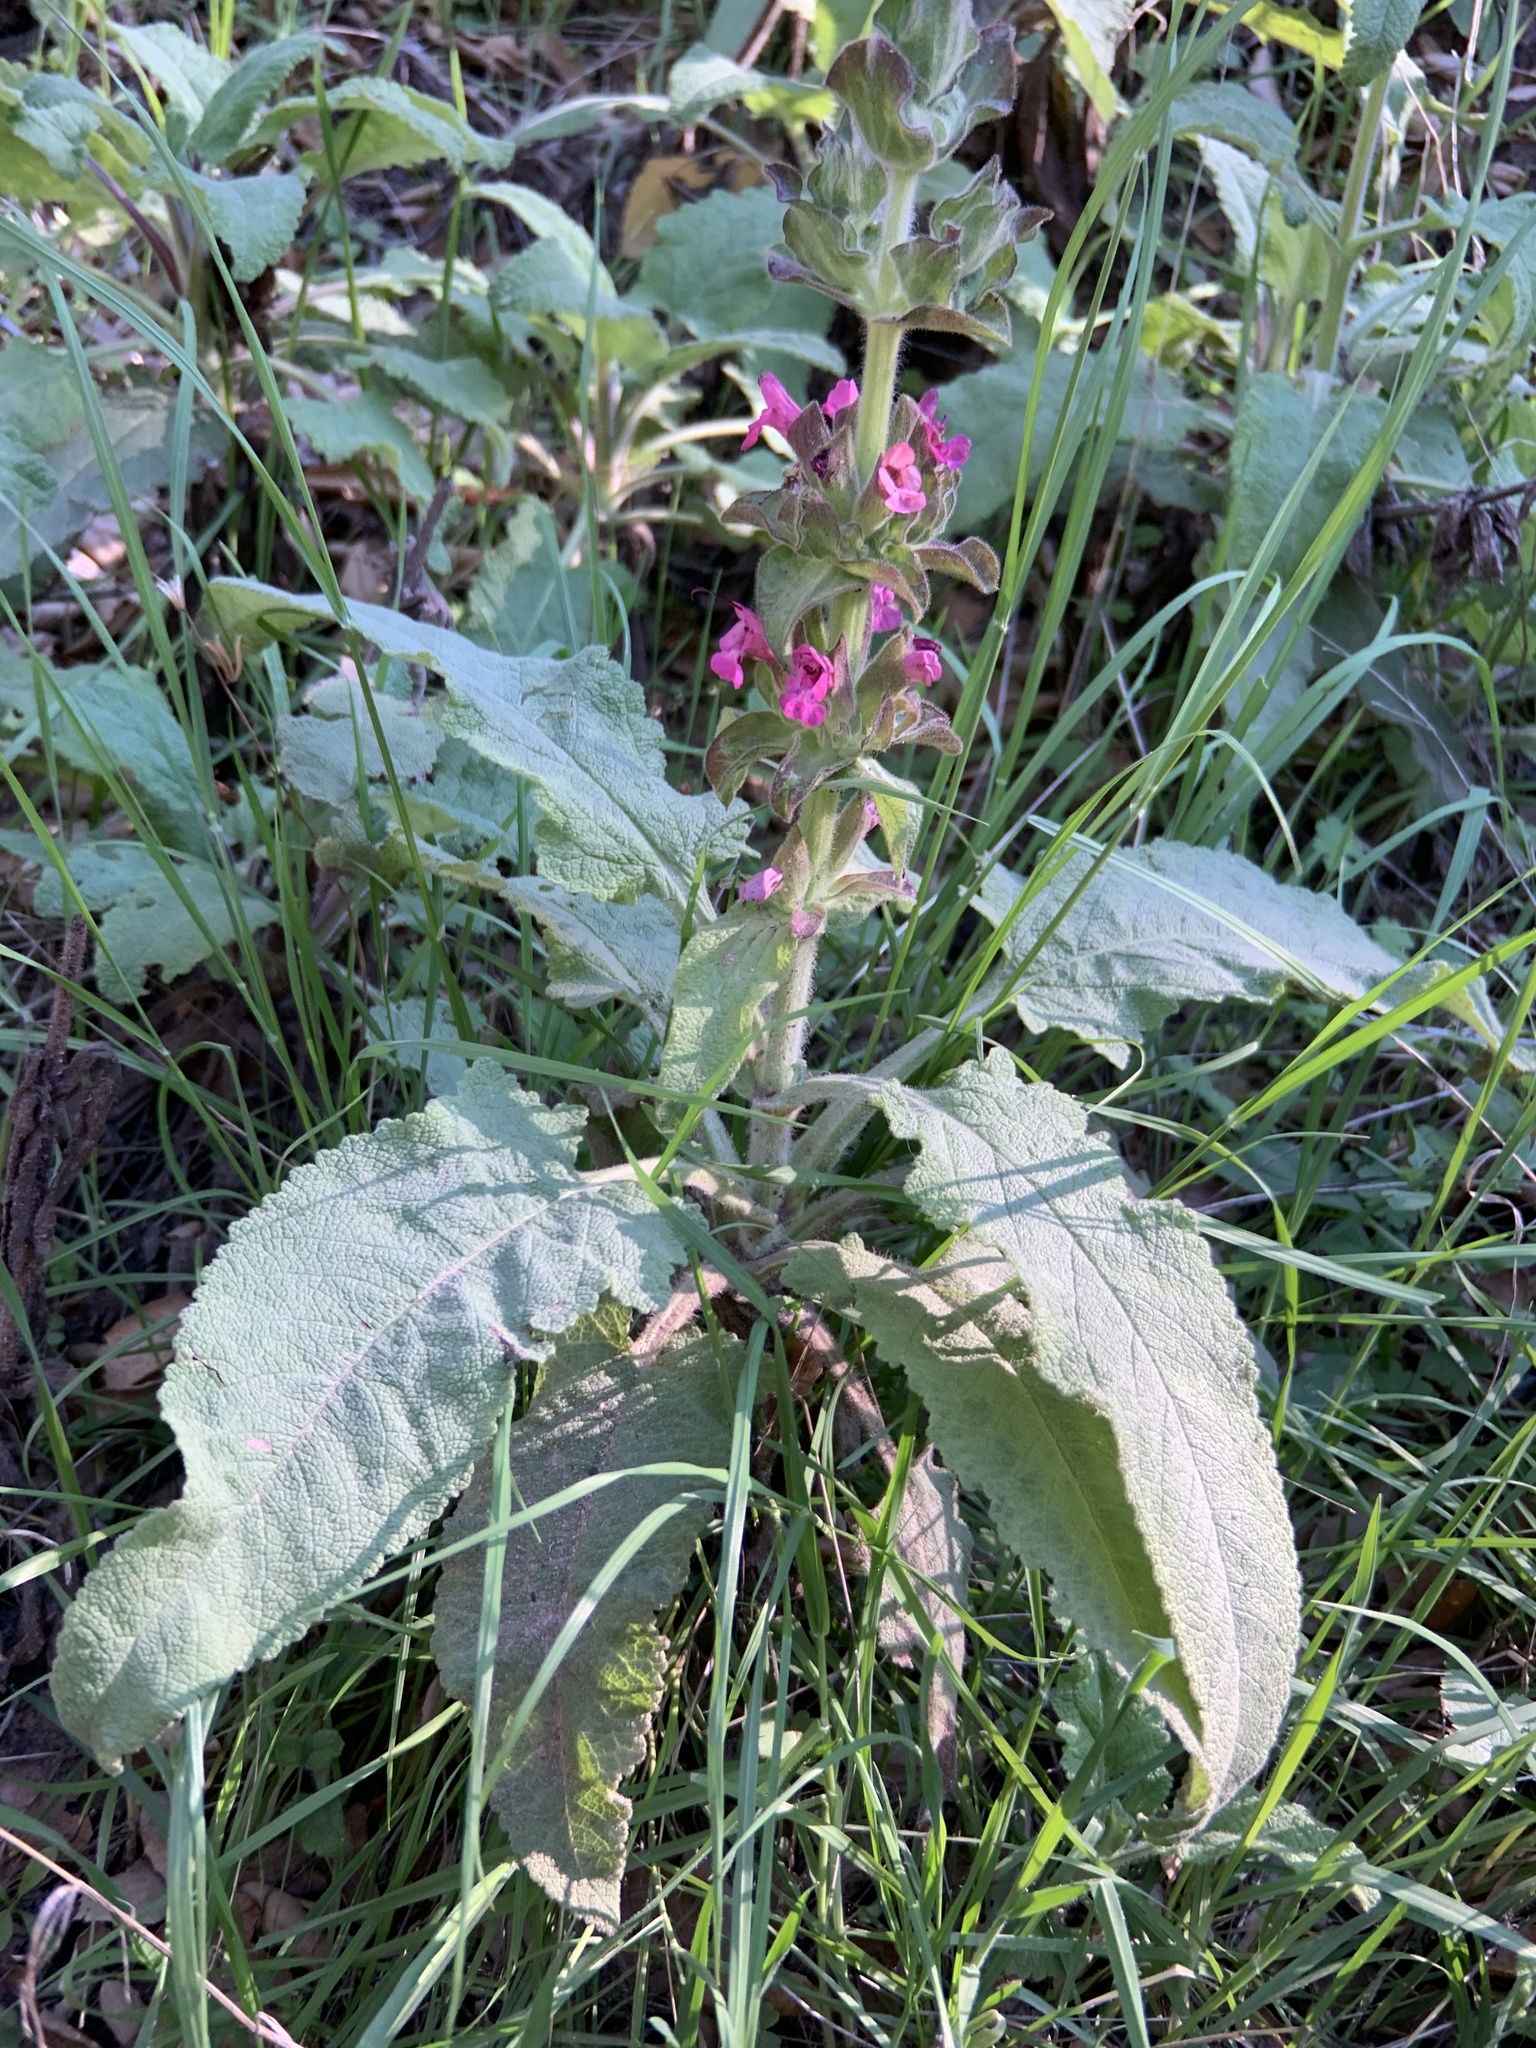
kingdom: Plantae
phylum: Tracheophyta
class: Magnoliopsida
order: Lamiales
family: Lamiaceae
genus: Salvia
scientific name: Salvia spathacea
